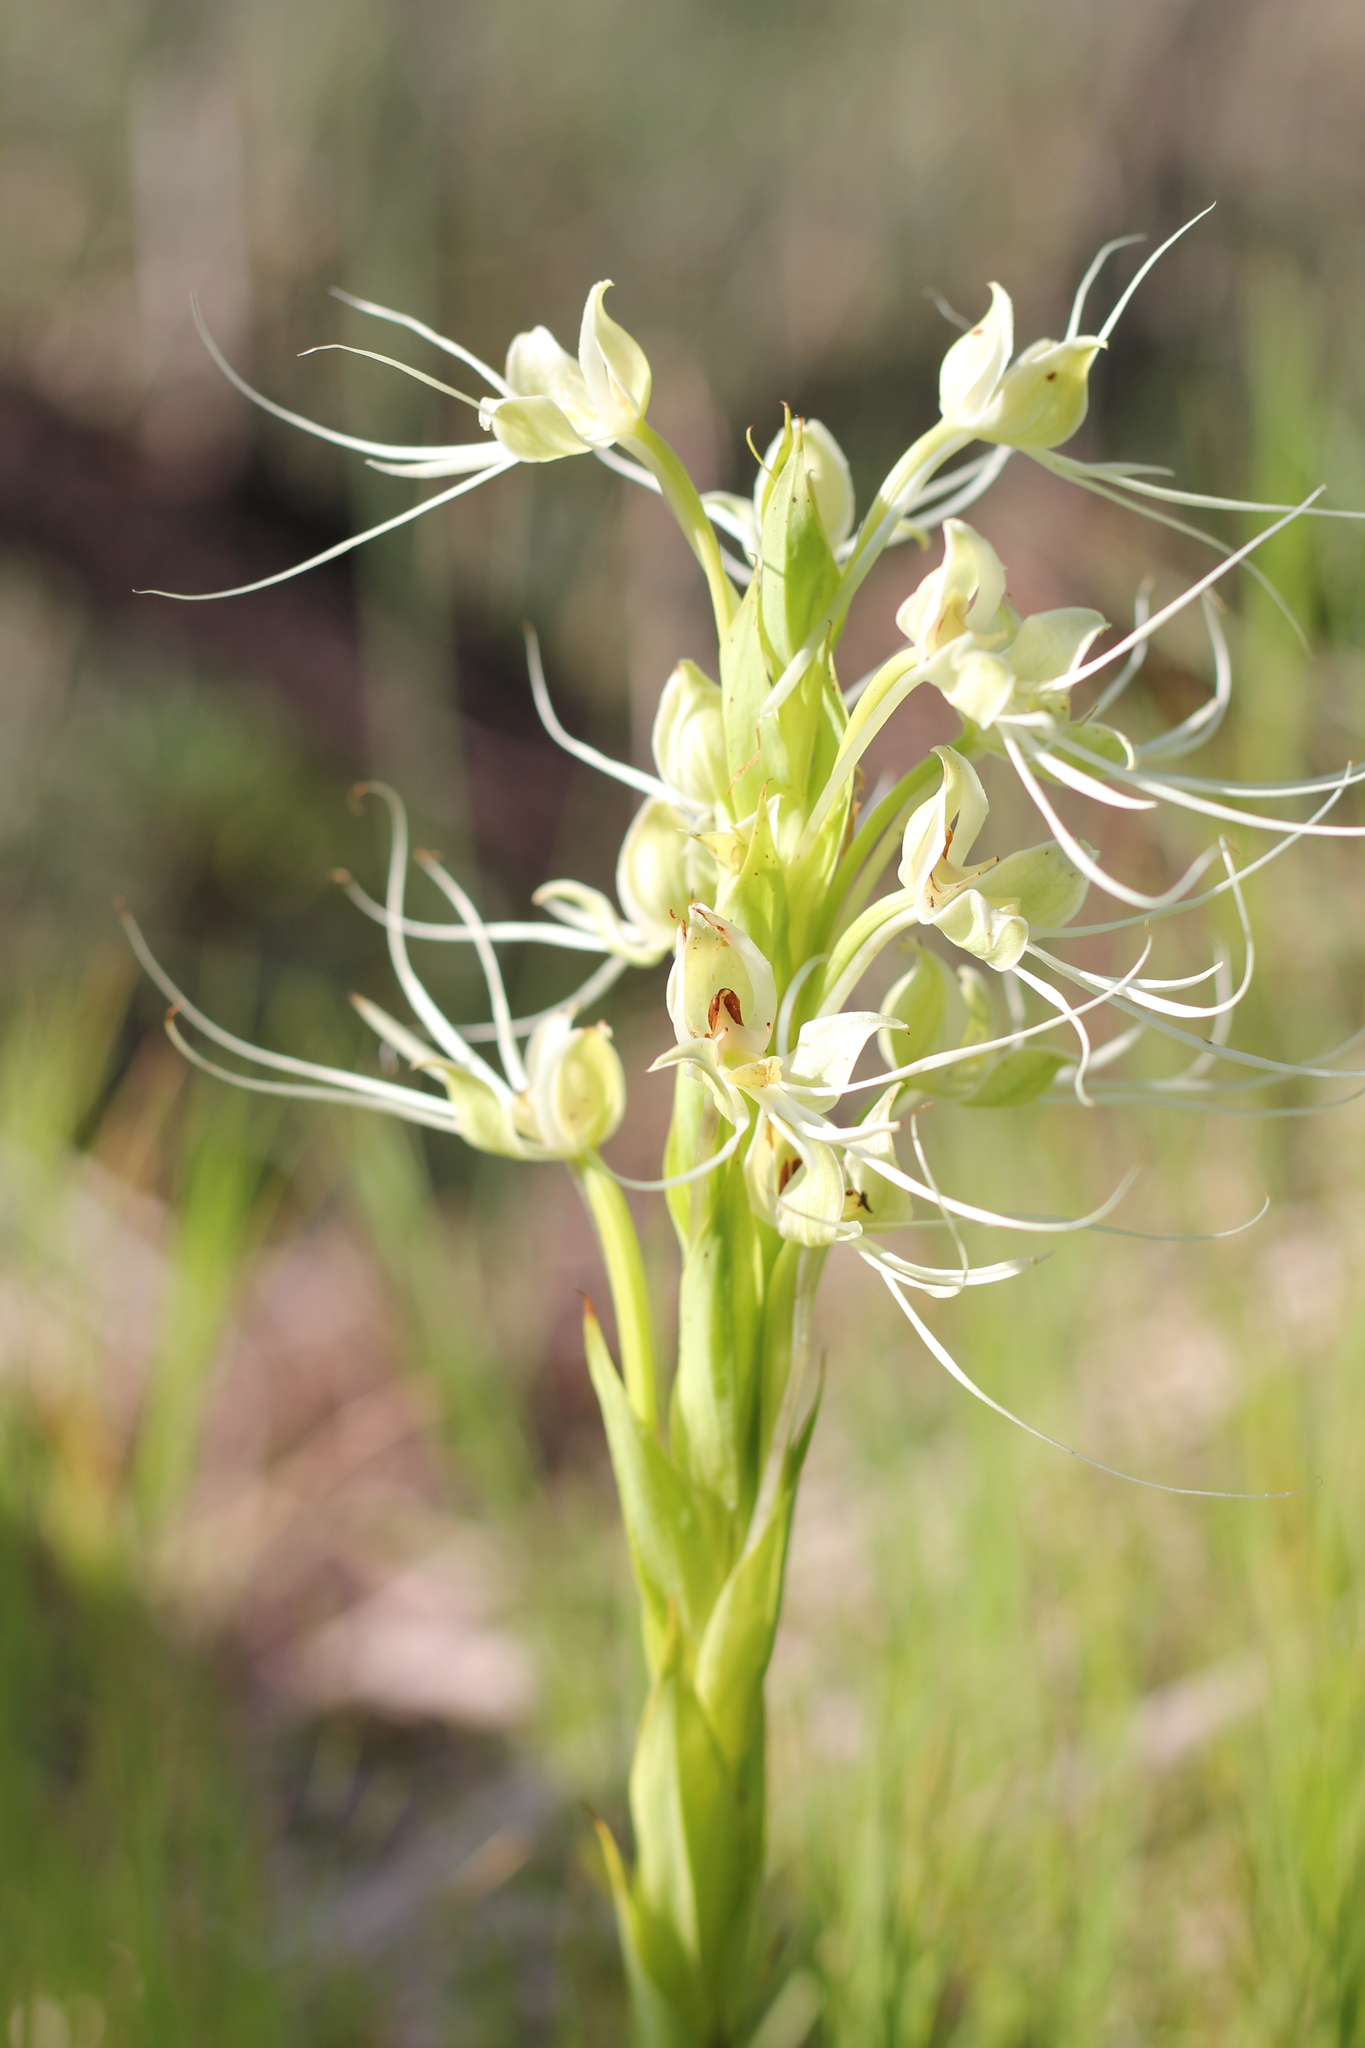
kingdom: Plantae
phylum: Tracheophyta
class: Liliopsida
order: Asparagales
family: Orchidaceae
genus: Habenaria
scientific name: Habenaria gourlieana
